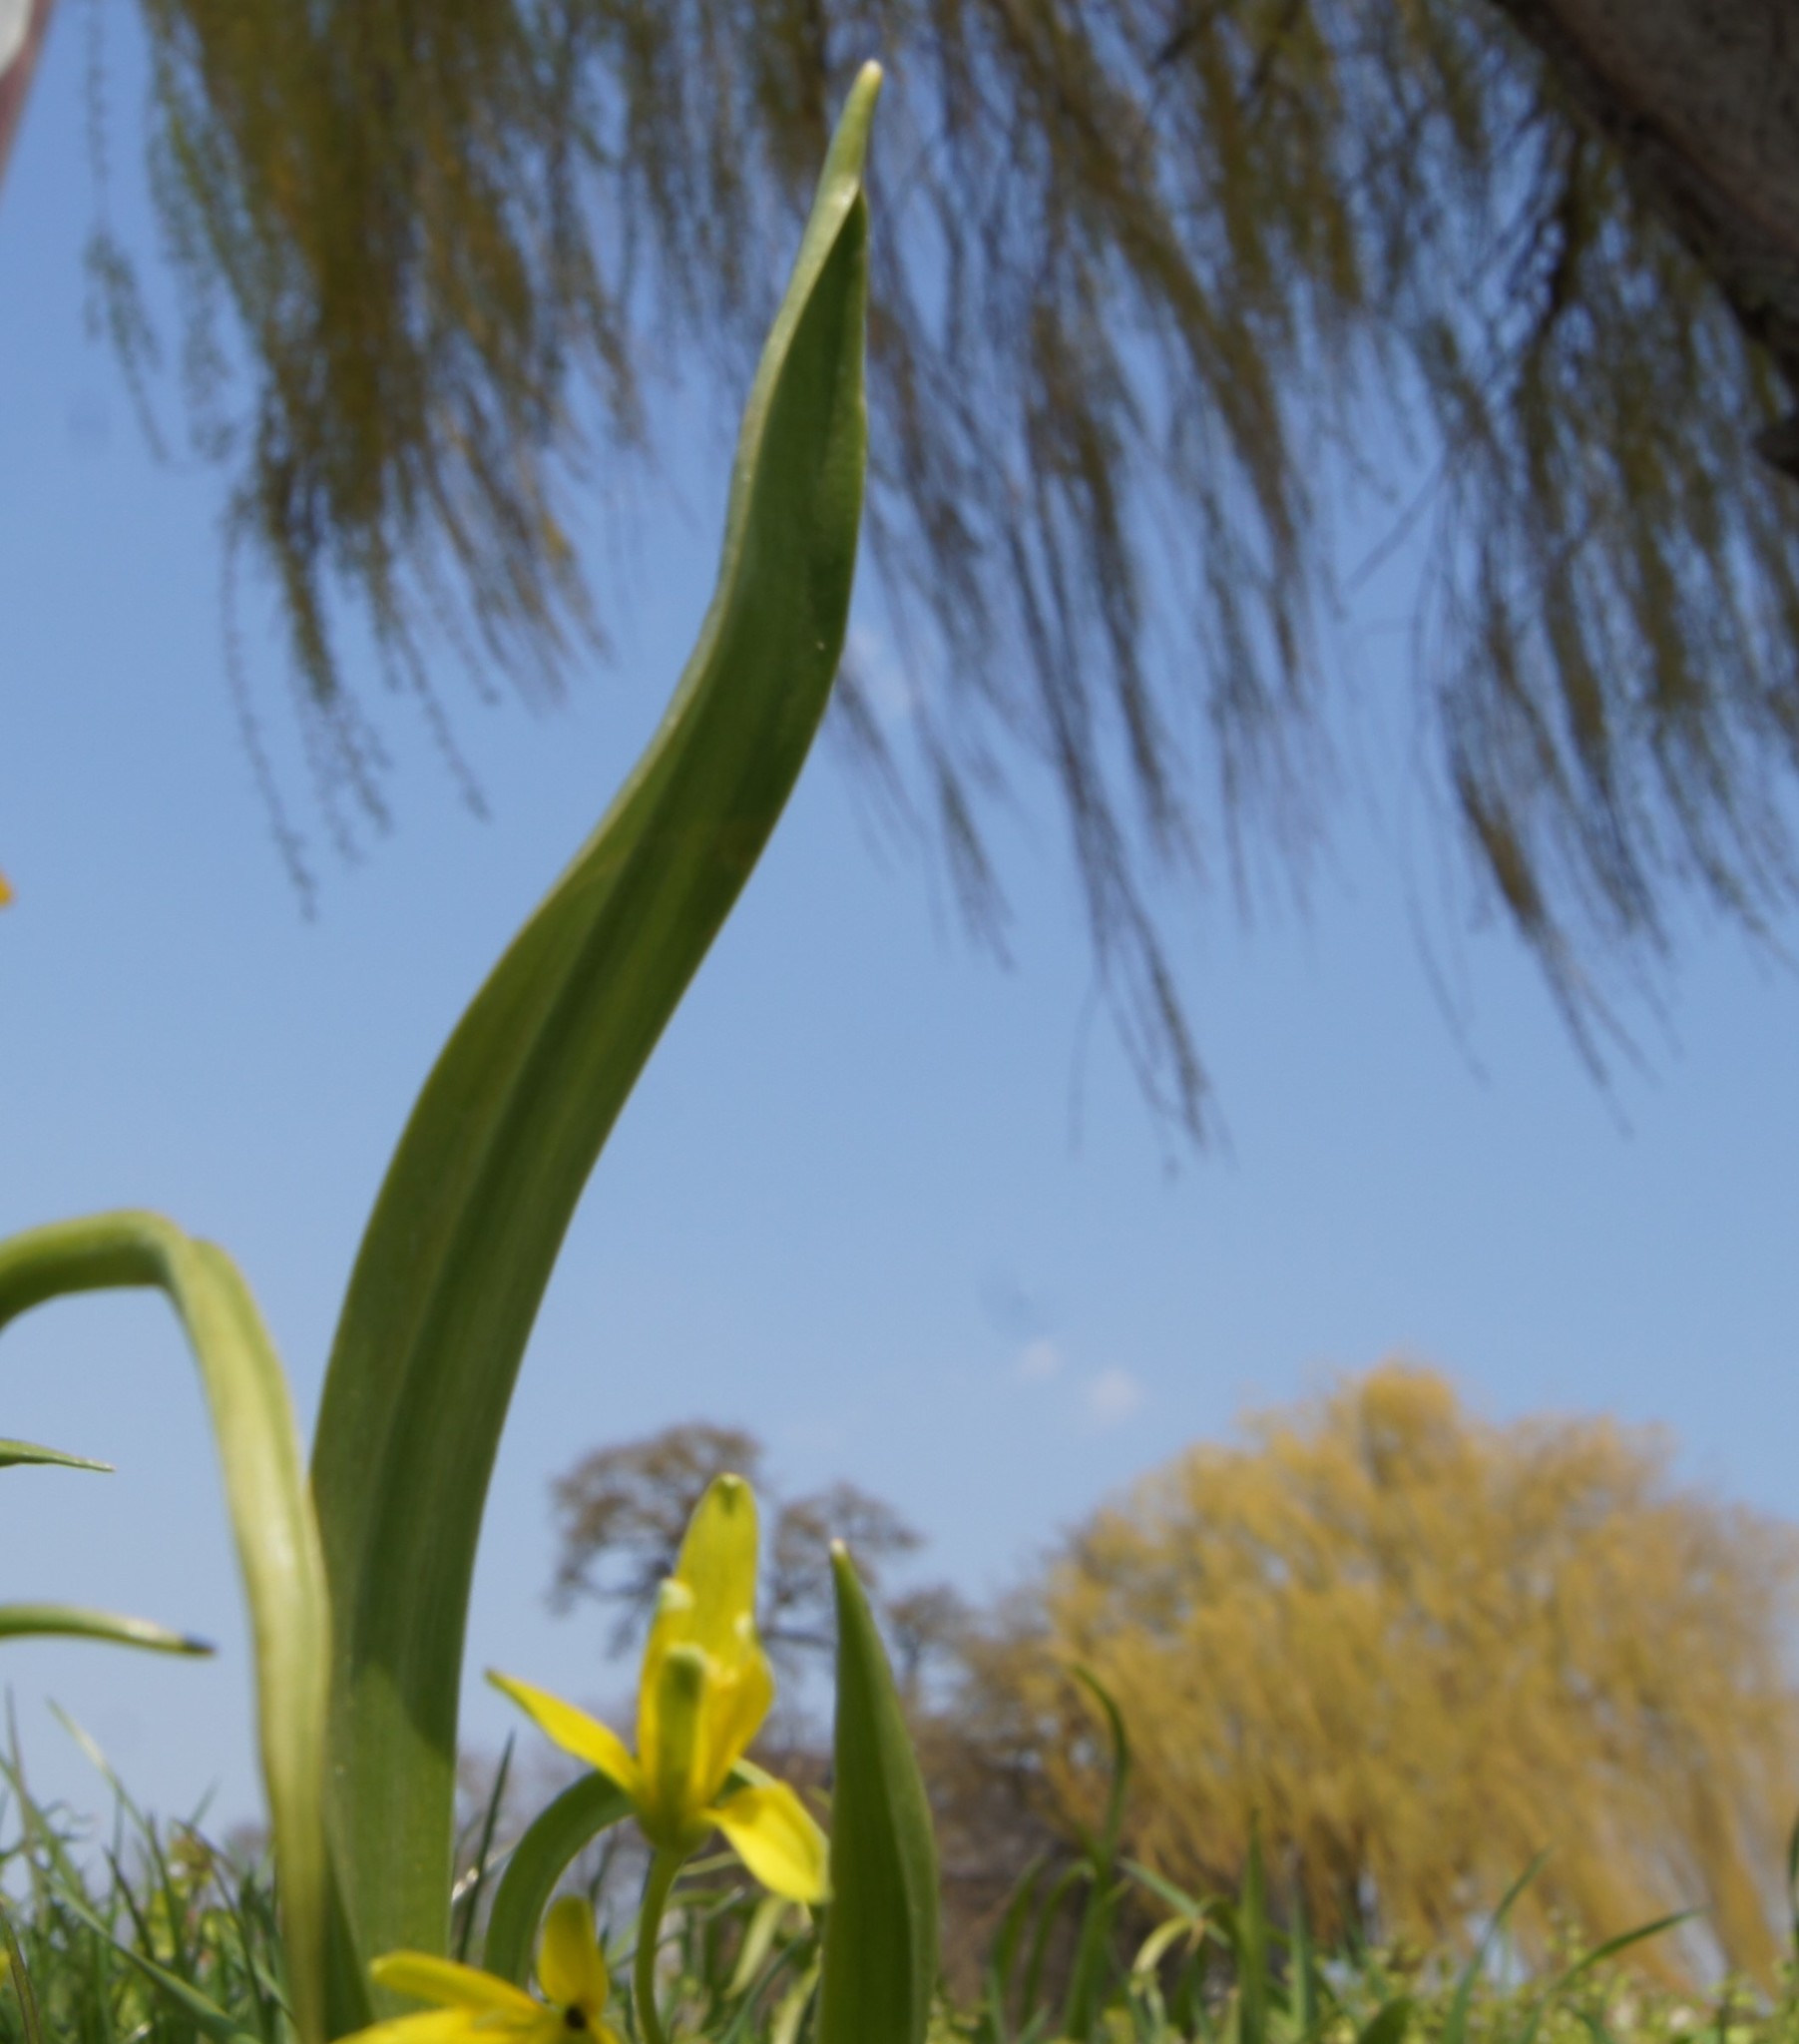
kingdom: Plantae
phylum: Tracheophyta
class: Liliopsida
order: Liliales
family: Liliaceae
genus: Gagea
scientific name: Gagea lutea
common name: Yellow star-of-bethlehem
